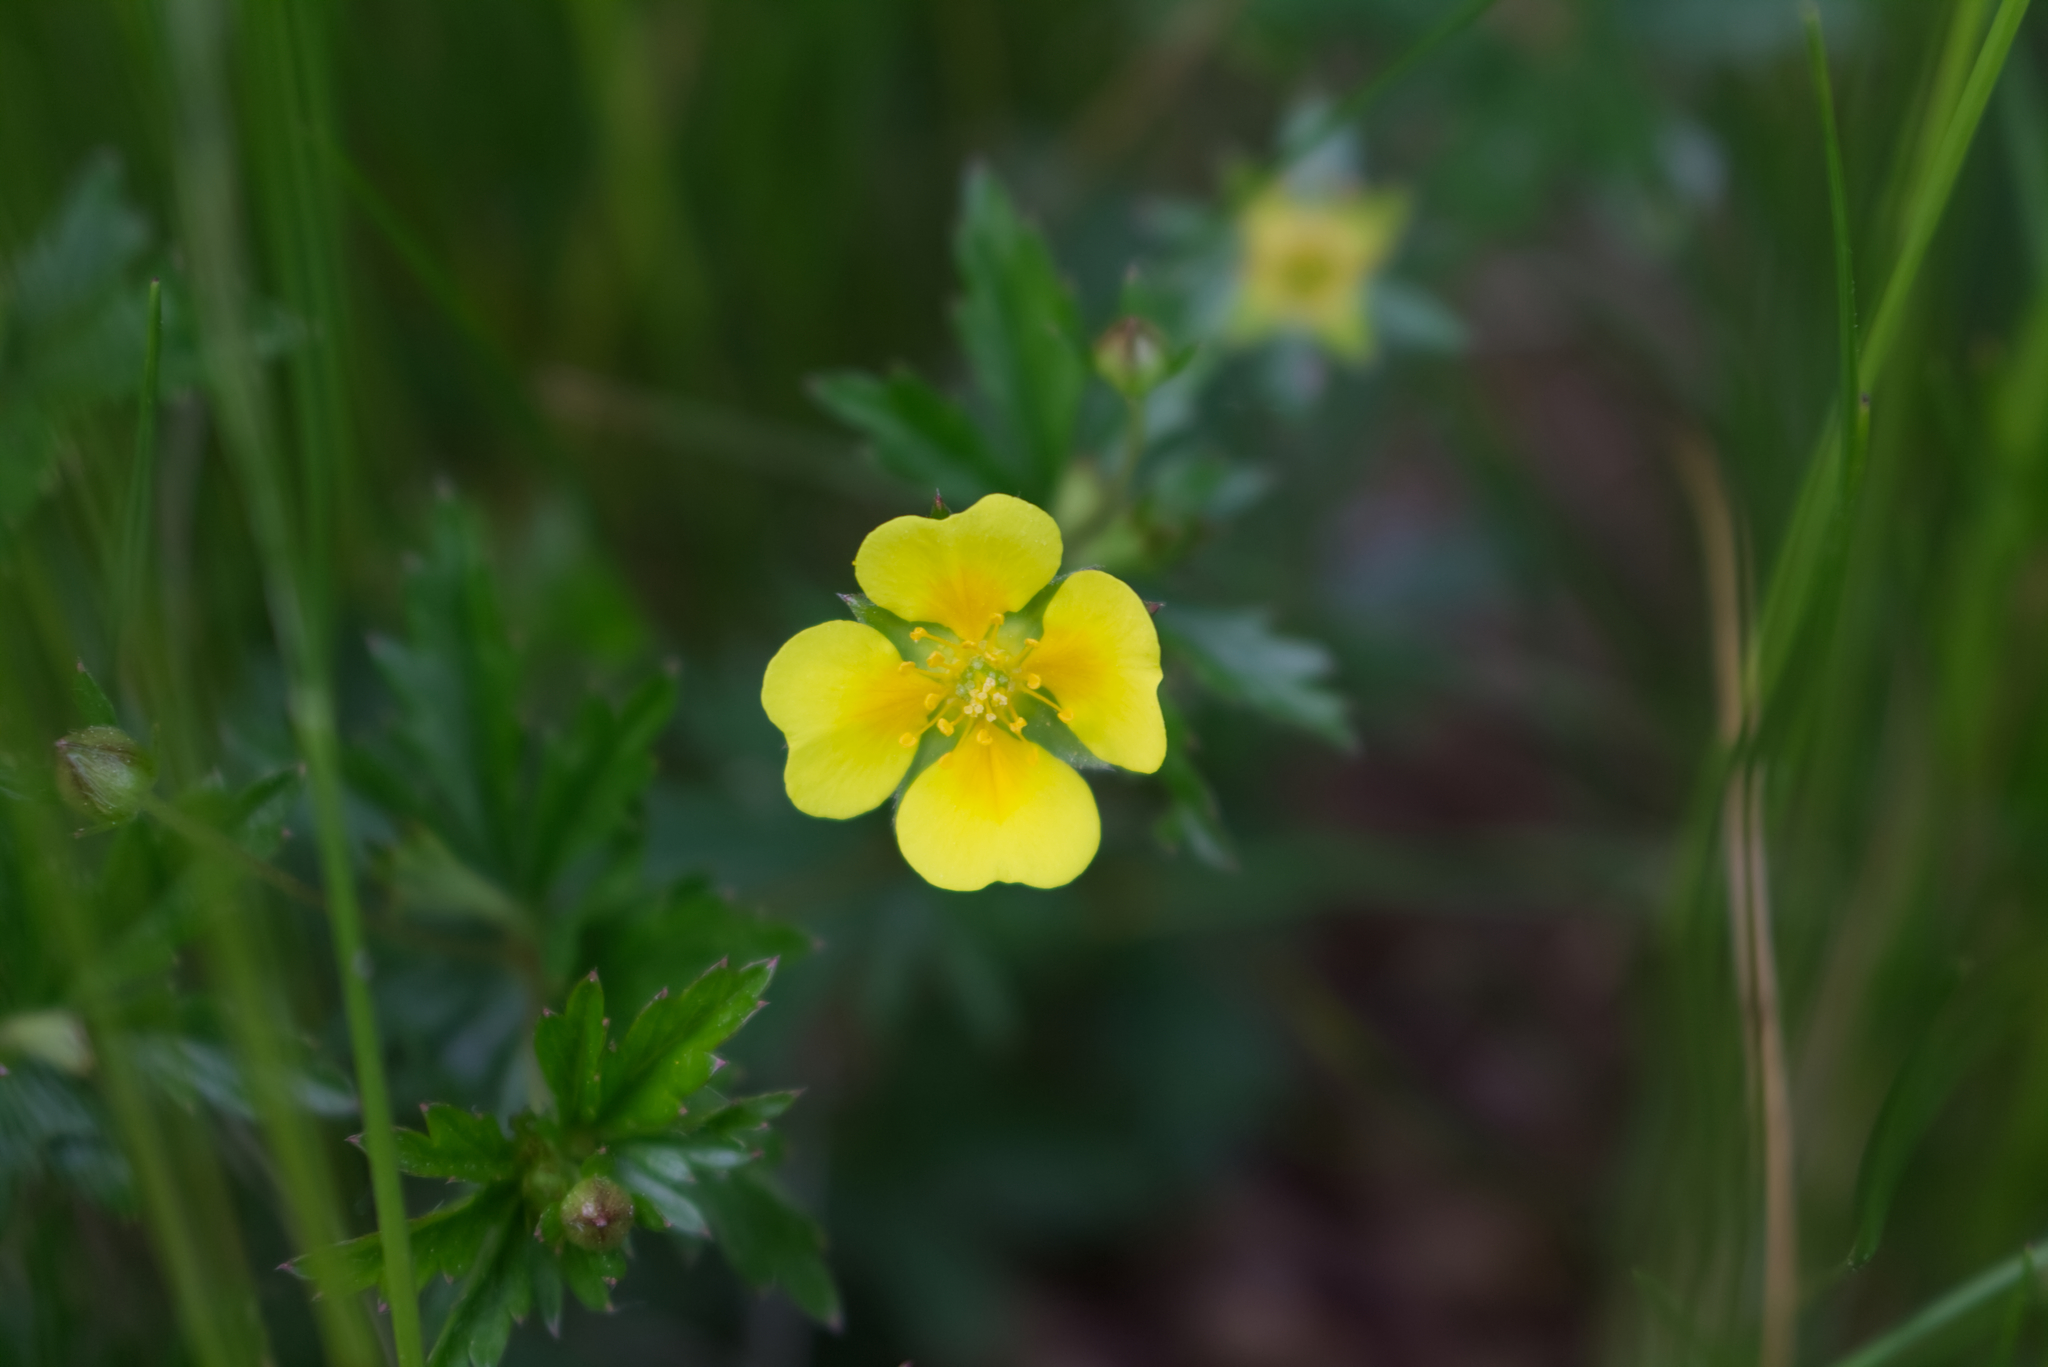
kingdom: Plantae
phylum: Tracheophyta
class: Magnoliopsida
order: Rosales
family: Rosaceae
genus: Potentilla
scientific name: Potentilla erecta
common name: Tormentil
